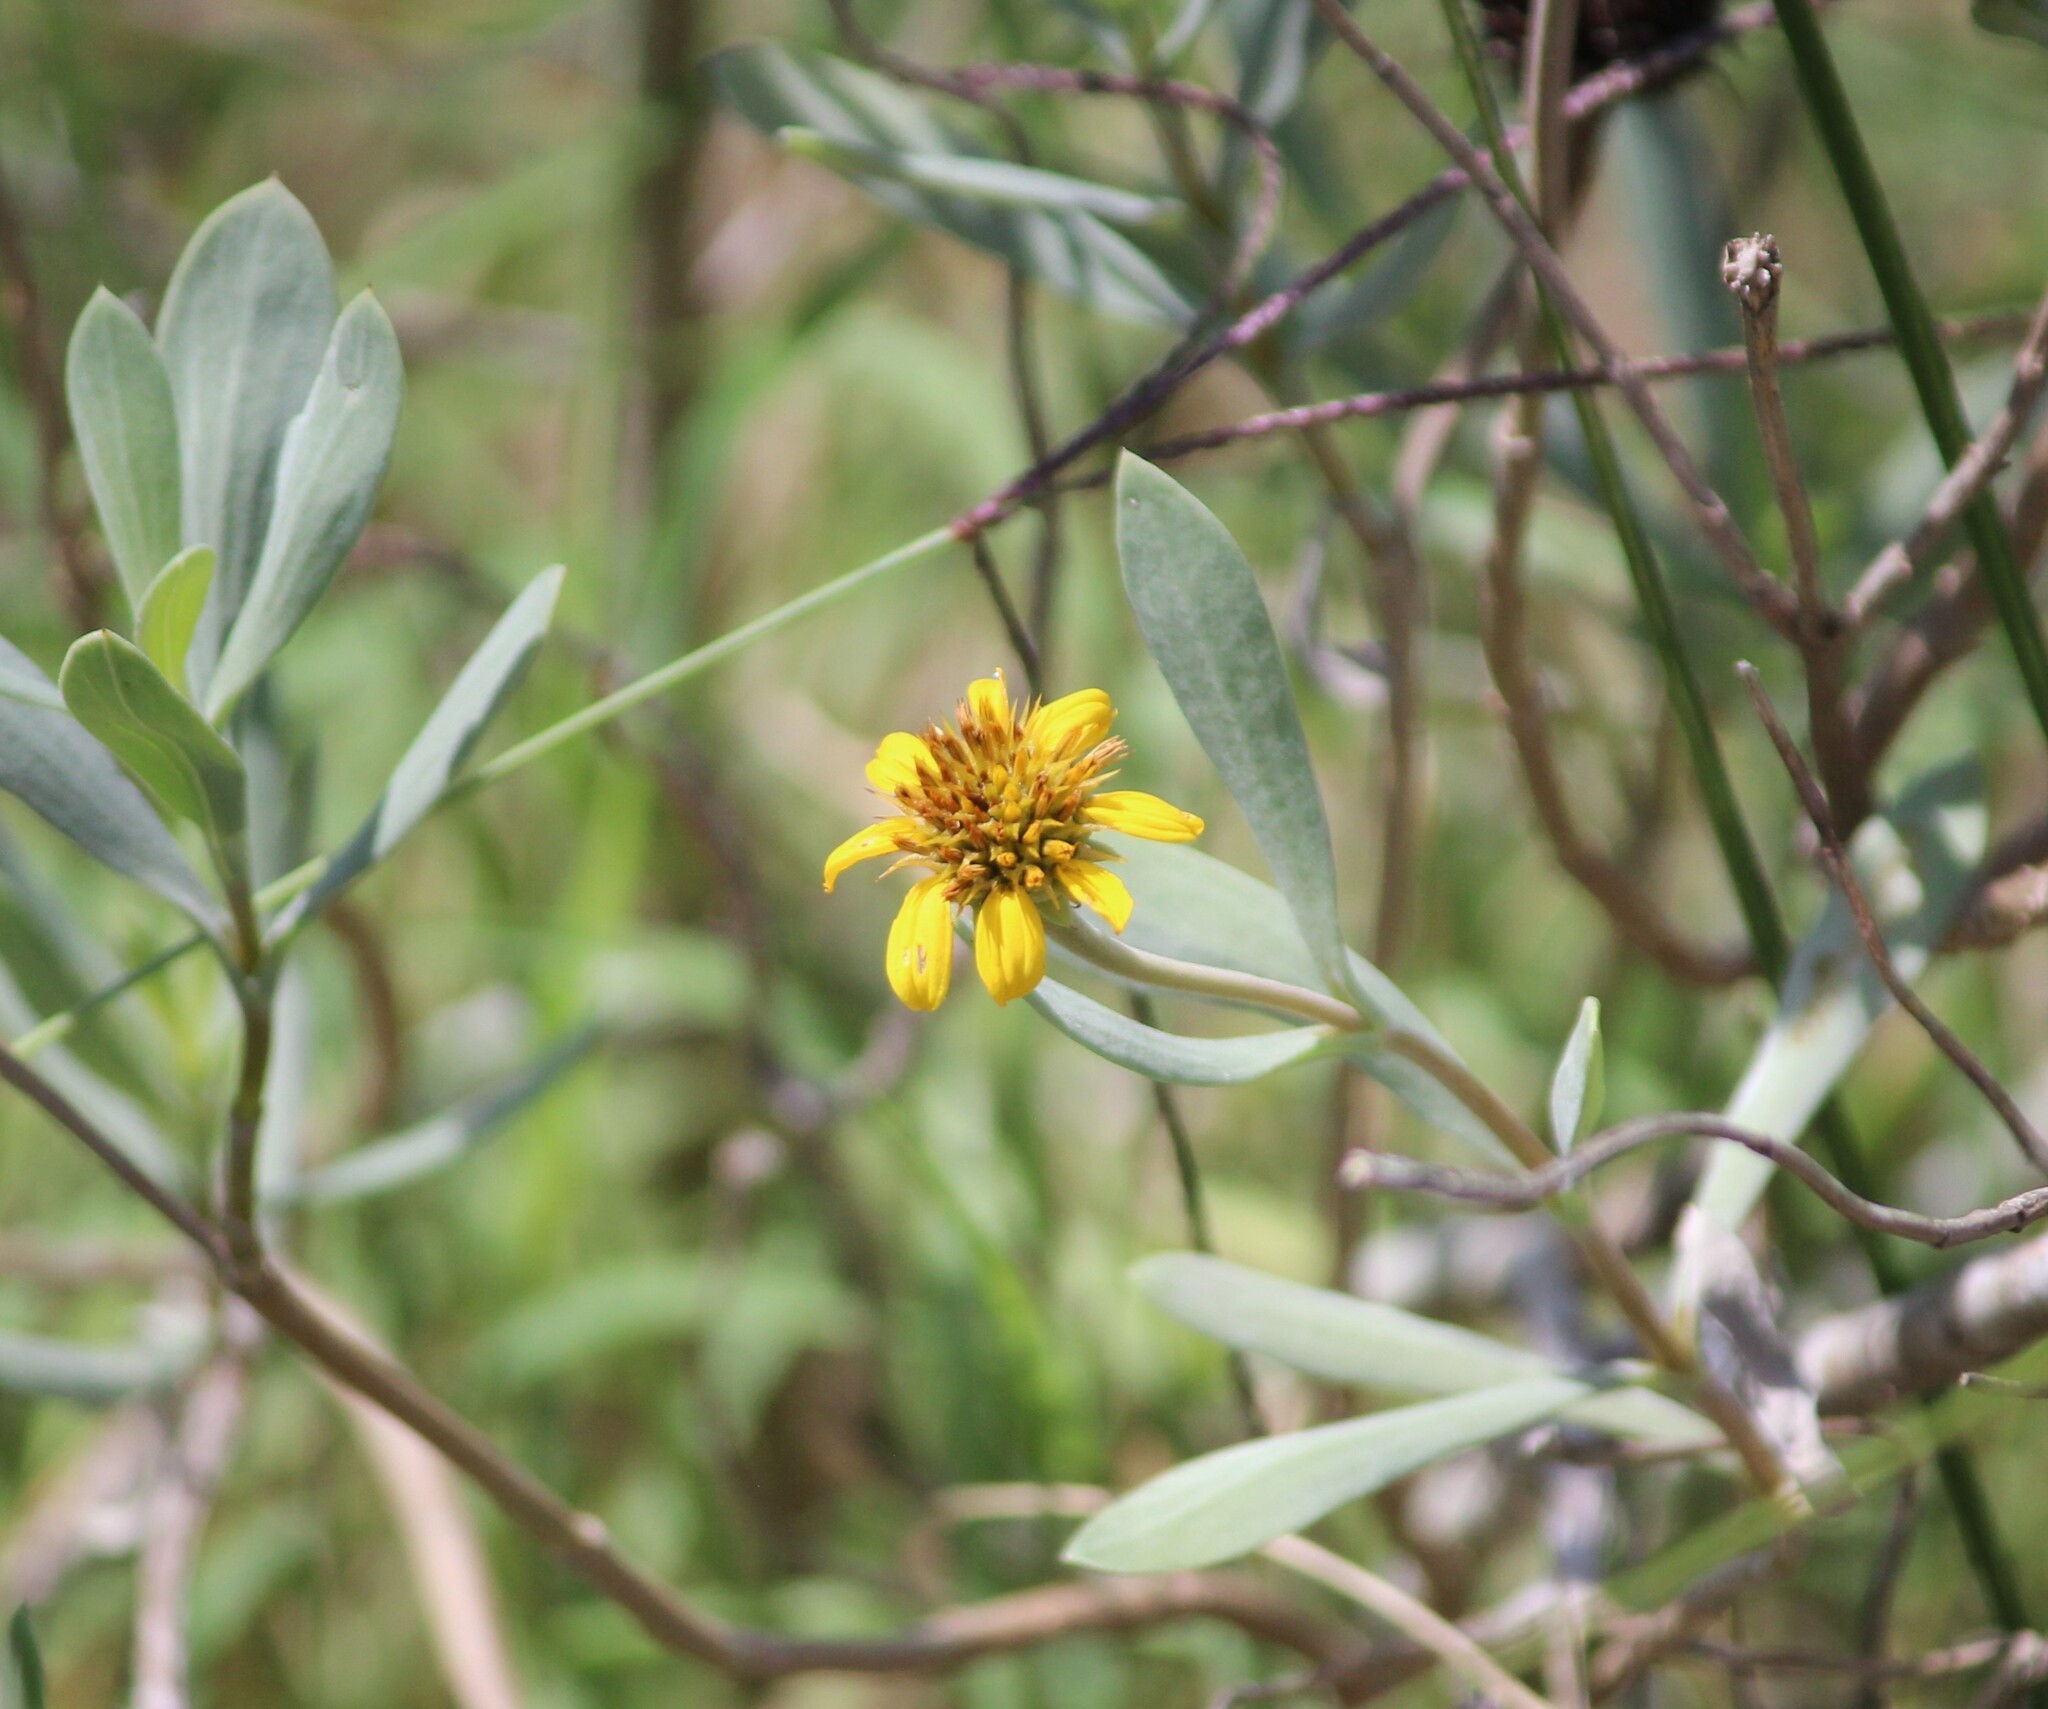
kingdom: Plantae
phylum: Tracheophyta
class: Magnoliopsida
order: Asterales
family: Asteraceae
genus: Borrichia
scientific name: Borrichia frutescens
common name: Sea oxeye
